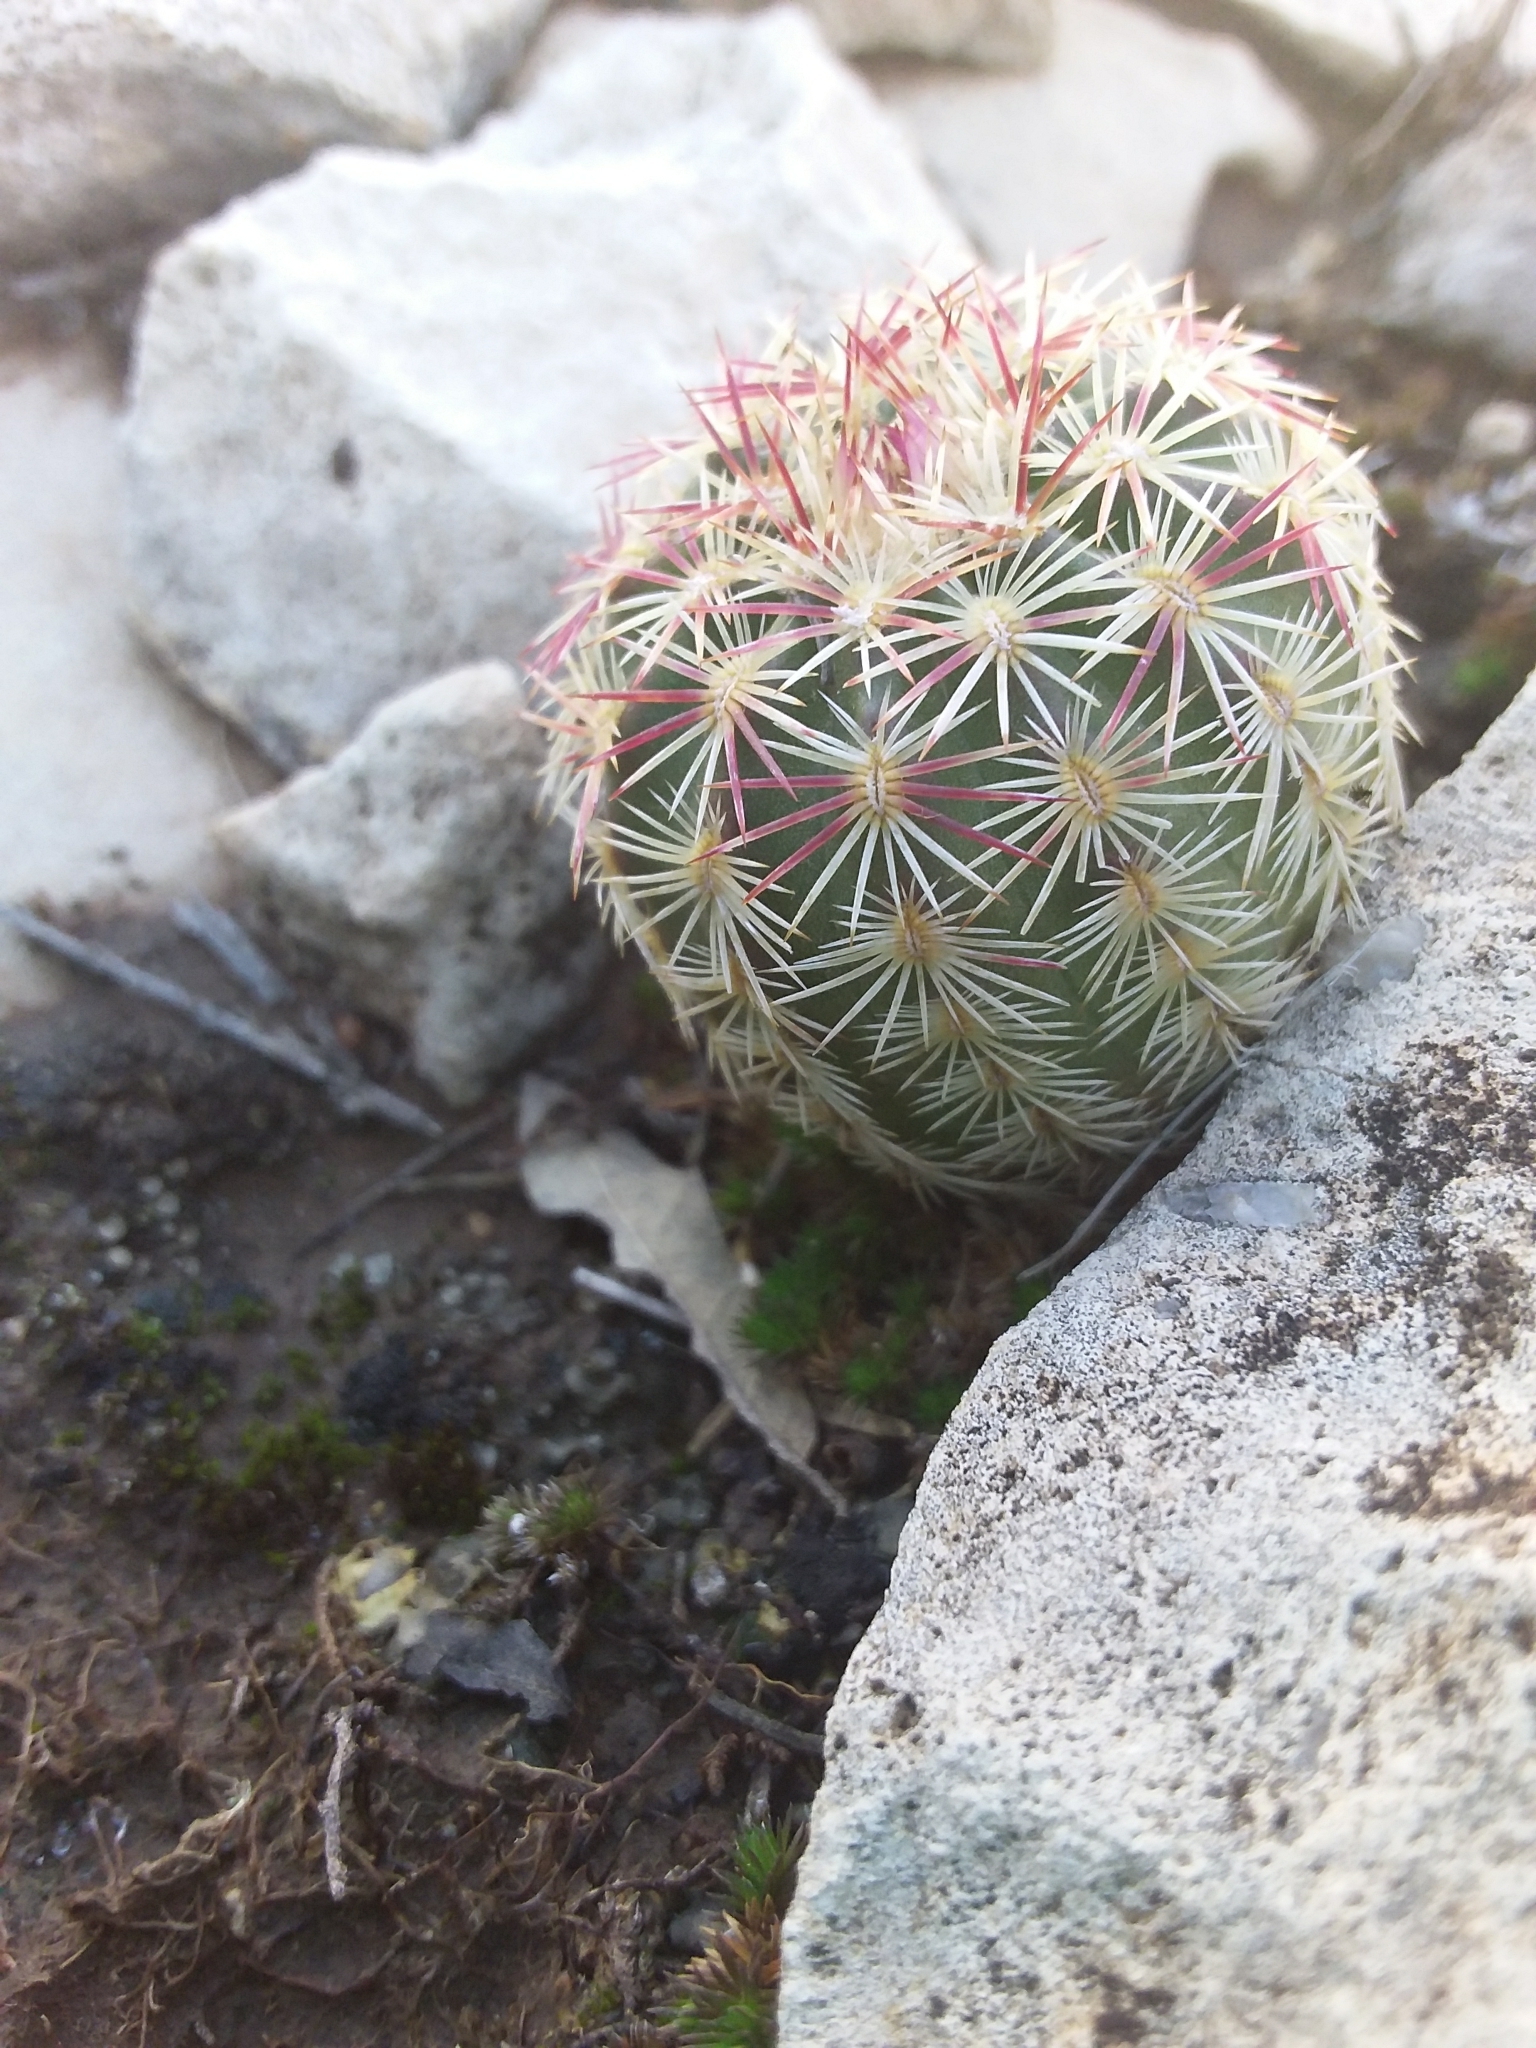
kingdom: Plantae
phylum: Tracheophyta
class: Magnoliopsida
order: Caryophyllales
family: Cactaceae
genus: Echinocereus
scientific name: Echinocereus viridiflorus
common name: Nylon hedgehog cactus
